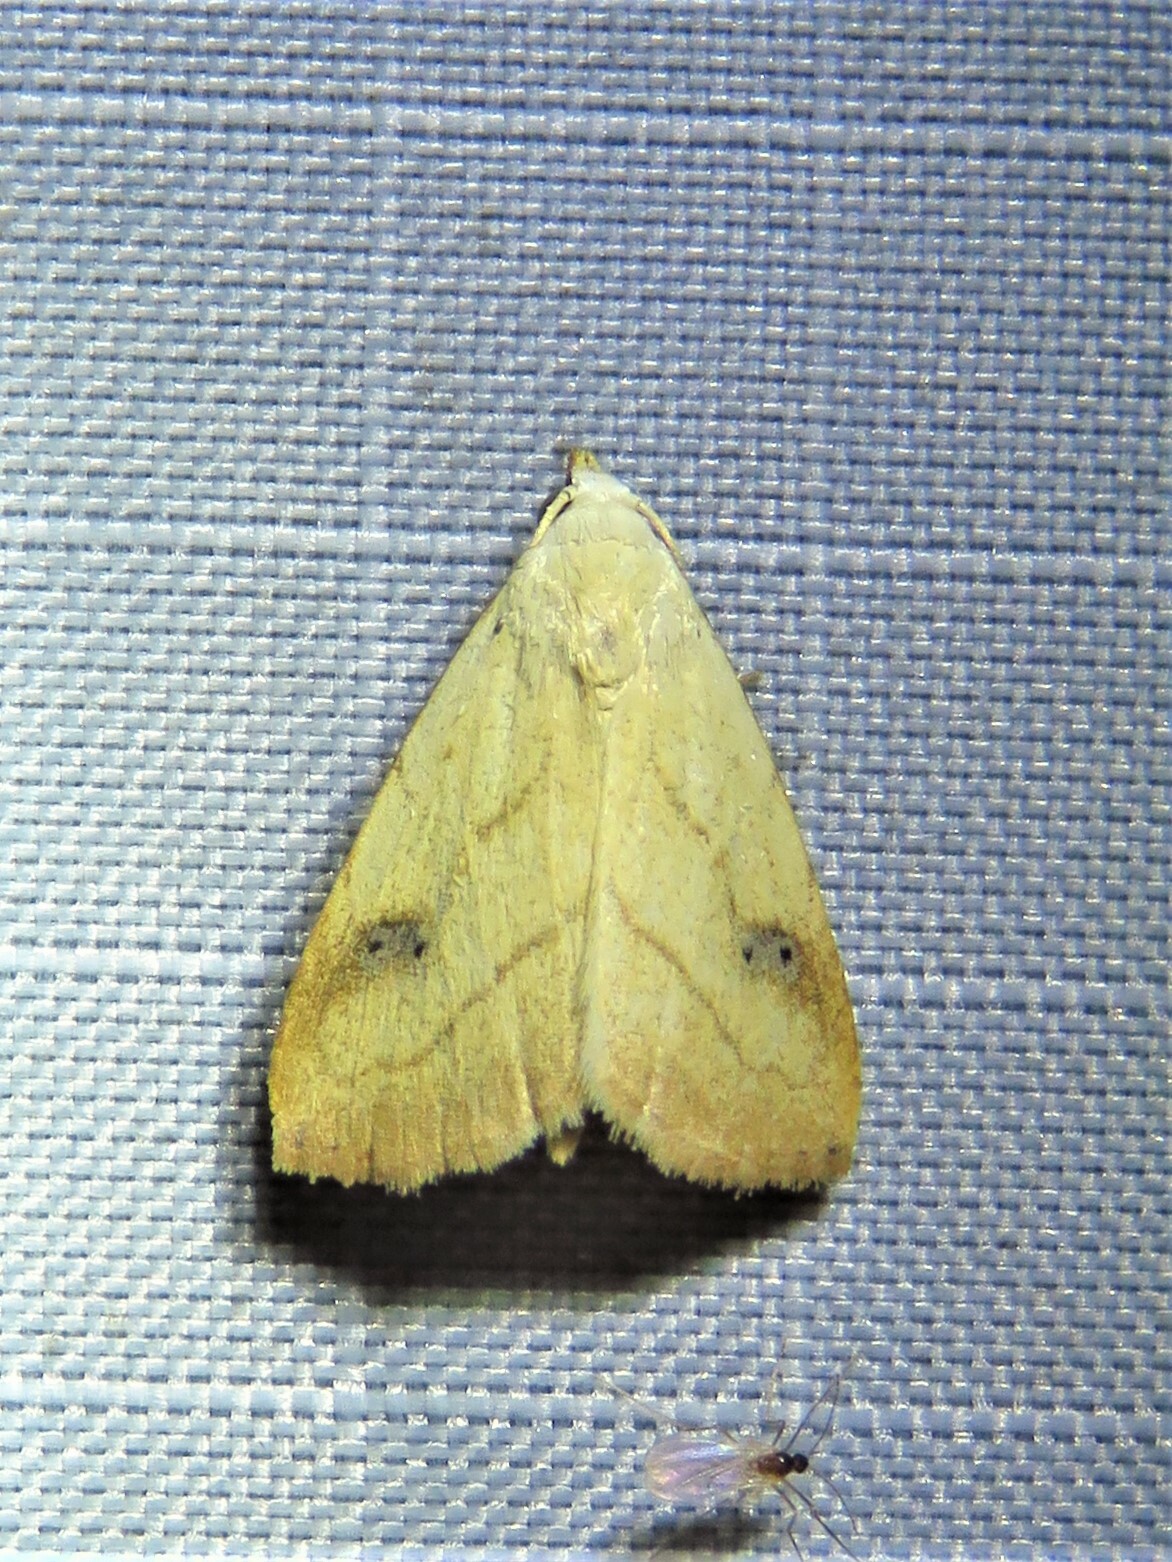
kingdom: Animalia
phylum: Arthropoda
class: Insecta
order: Lepidoptera
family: Erebidae
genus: Rivula
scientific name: Rivula propinqualis
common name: Spotted grass moth
